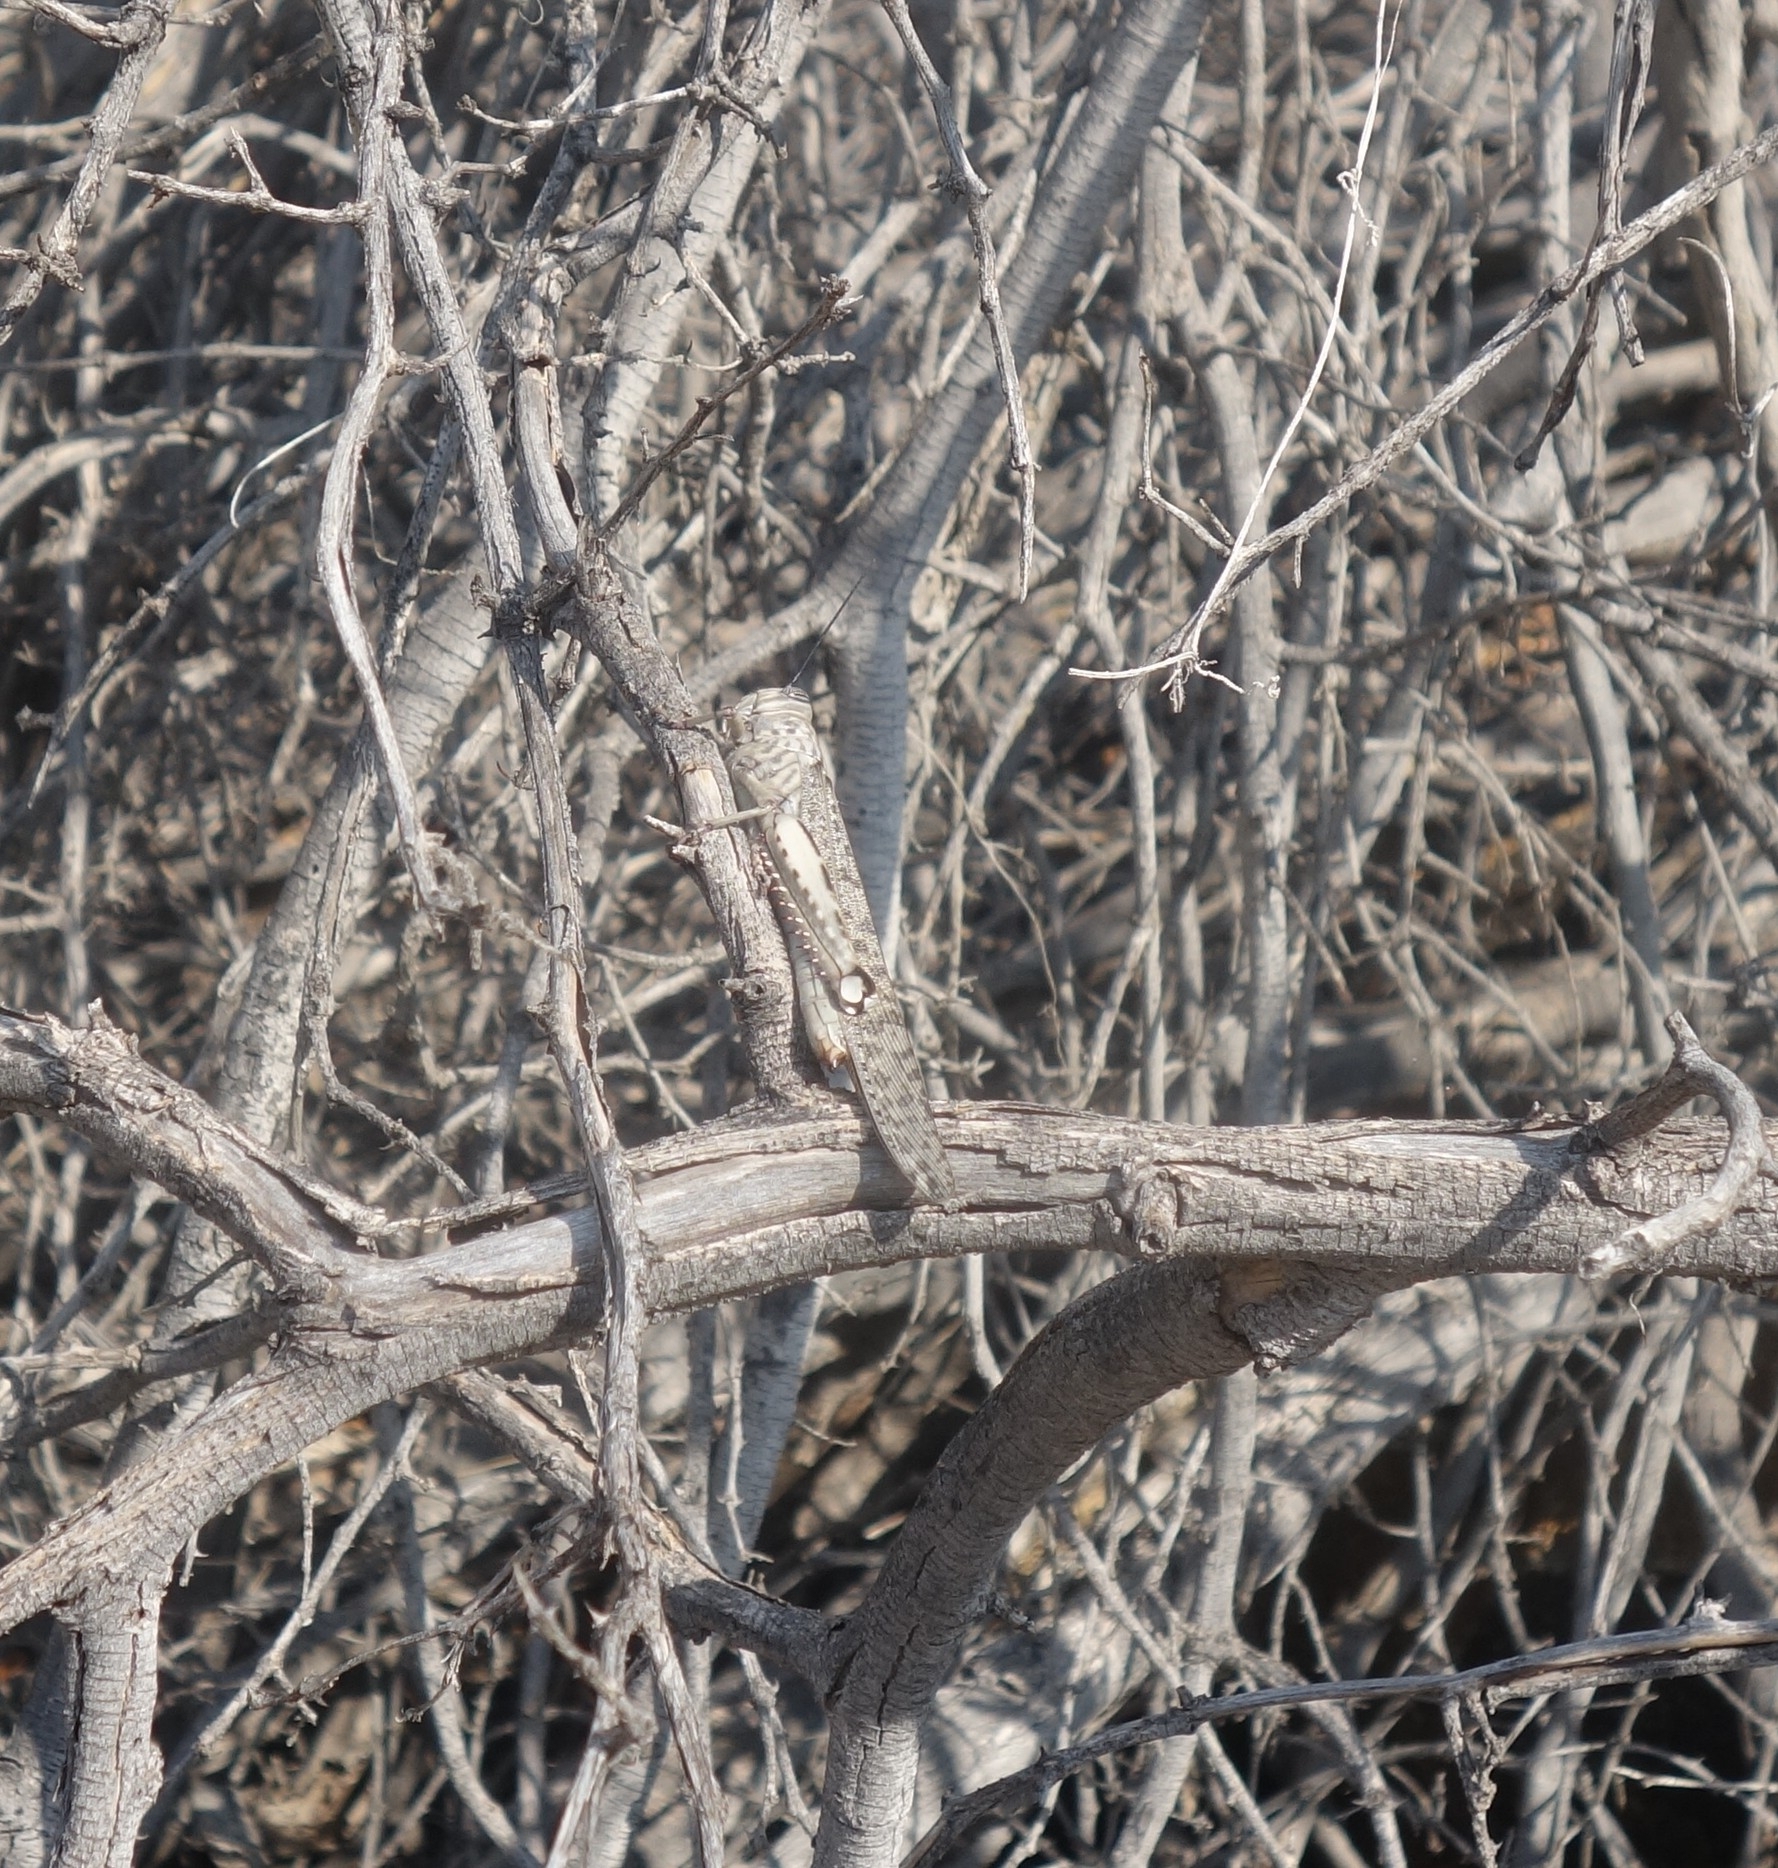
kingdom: Animalia
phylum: Arthropoda
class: Insecta
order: Orthoptera
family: Acrididae
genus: Anacridium
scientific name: Anacridium moestum
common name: Tree locust
